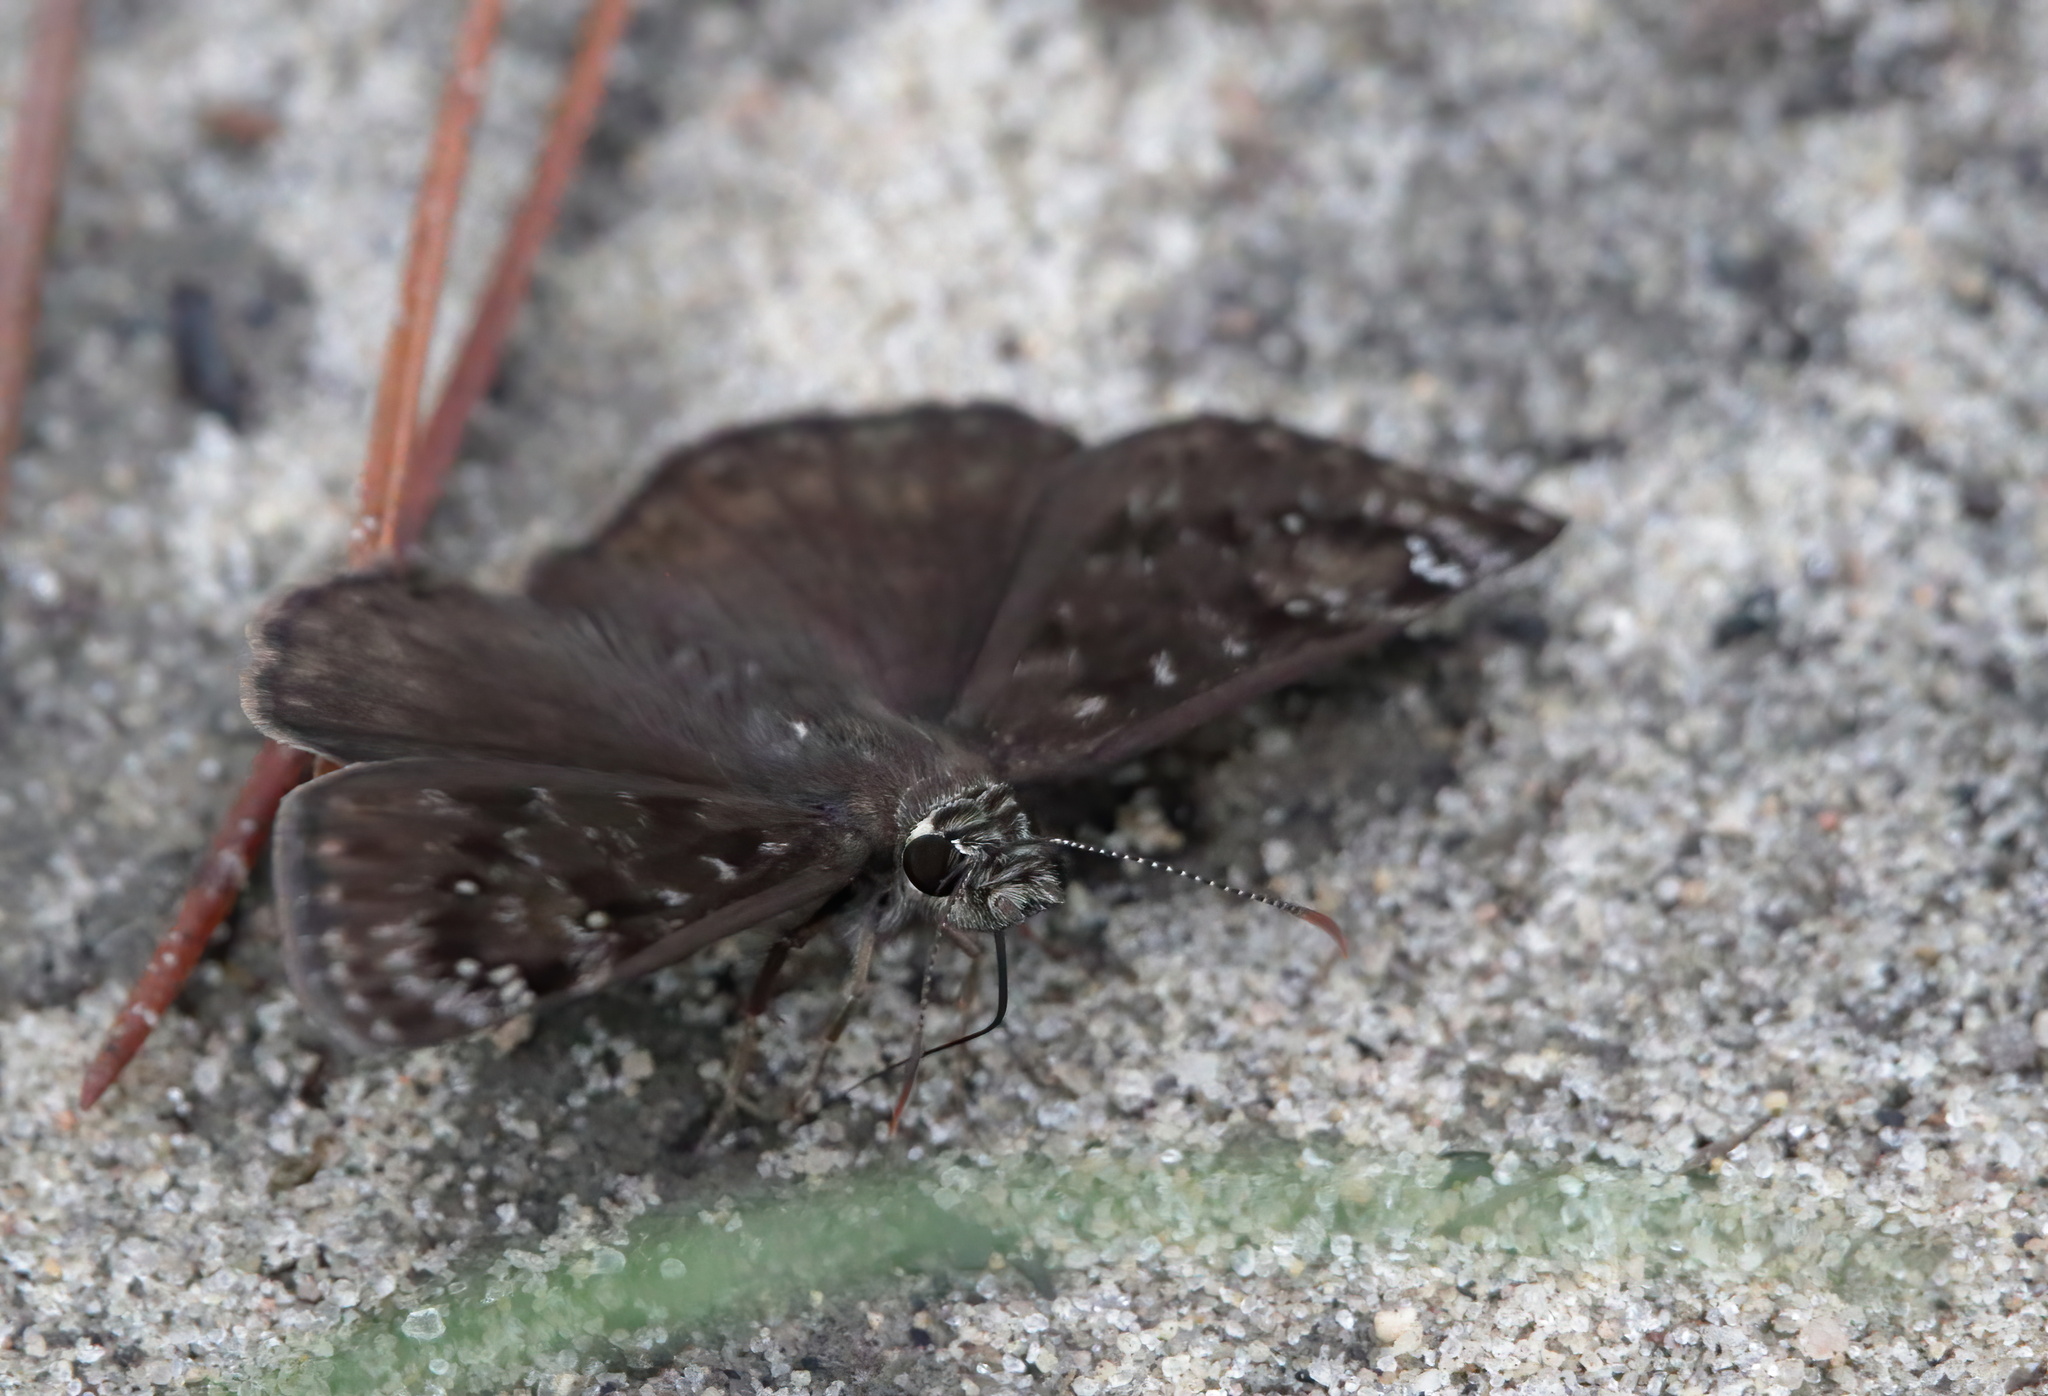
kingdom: Animalia
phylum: Arthropoda
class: Insecta
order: Lepidoptera
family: Hesperiidae
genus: Erynnis
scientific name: Erynnis horatius
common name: Horace's duskywing
